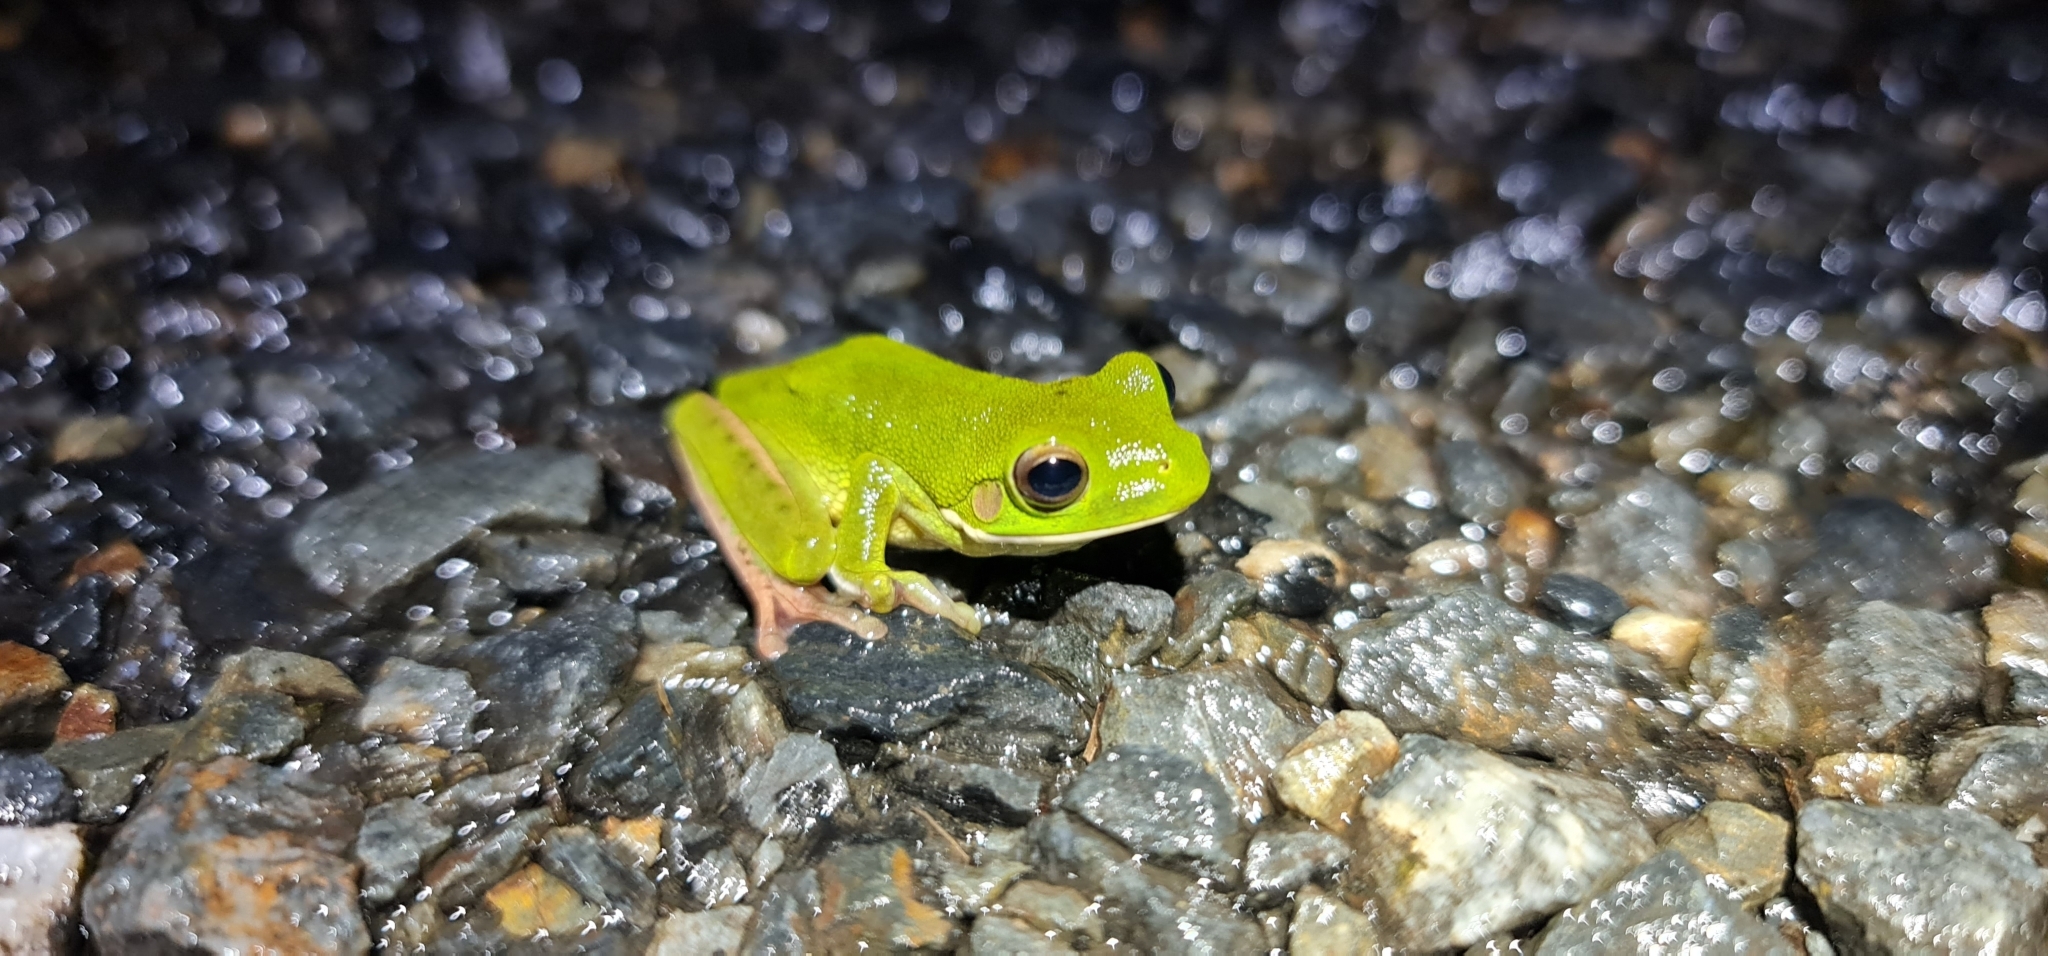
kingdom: Animalia
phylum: Chordata
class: Amphibia
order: Anura
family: Pelodryadidae
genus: Nyctimystes
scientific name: Nyctimystes infrafrenatus
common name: Australian giant treefrog
